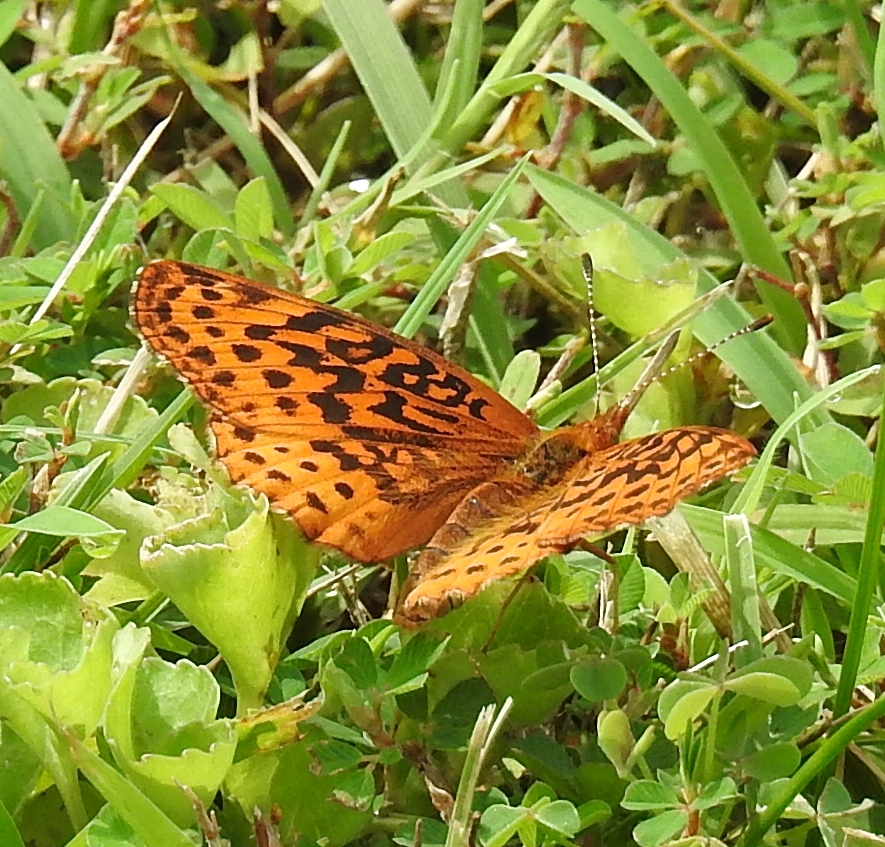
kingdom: Animalia
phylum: Arthropoda
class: Insecta
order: Lepidoptera
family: Nymphalidae
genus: Clossiana
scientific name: Clossiana toddi
